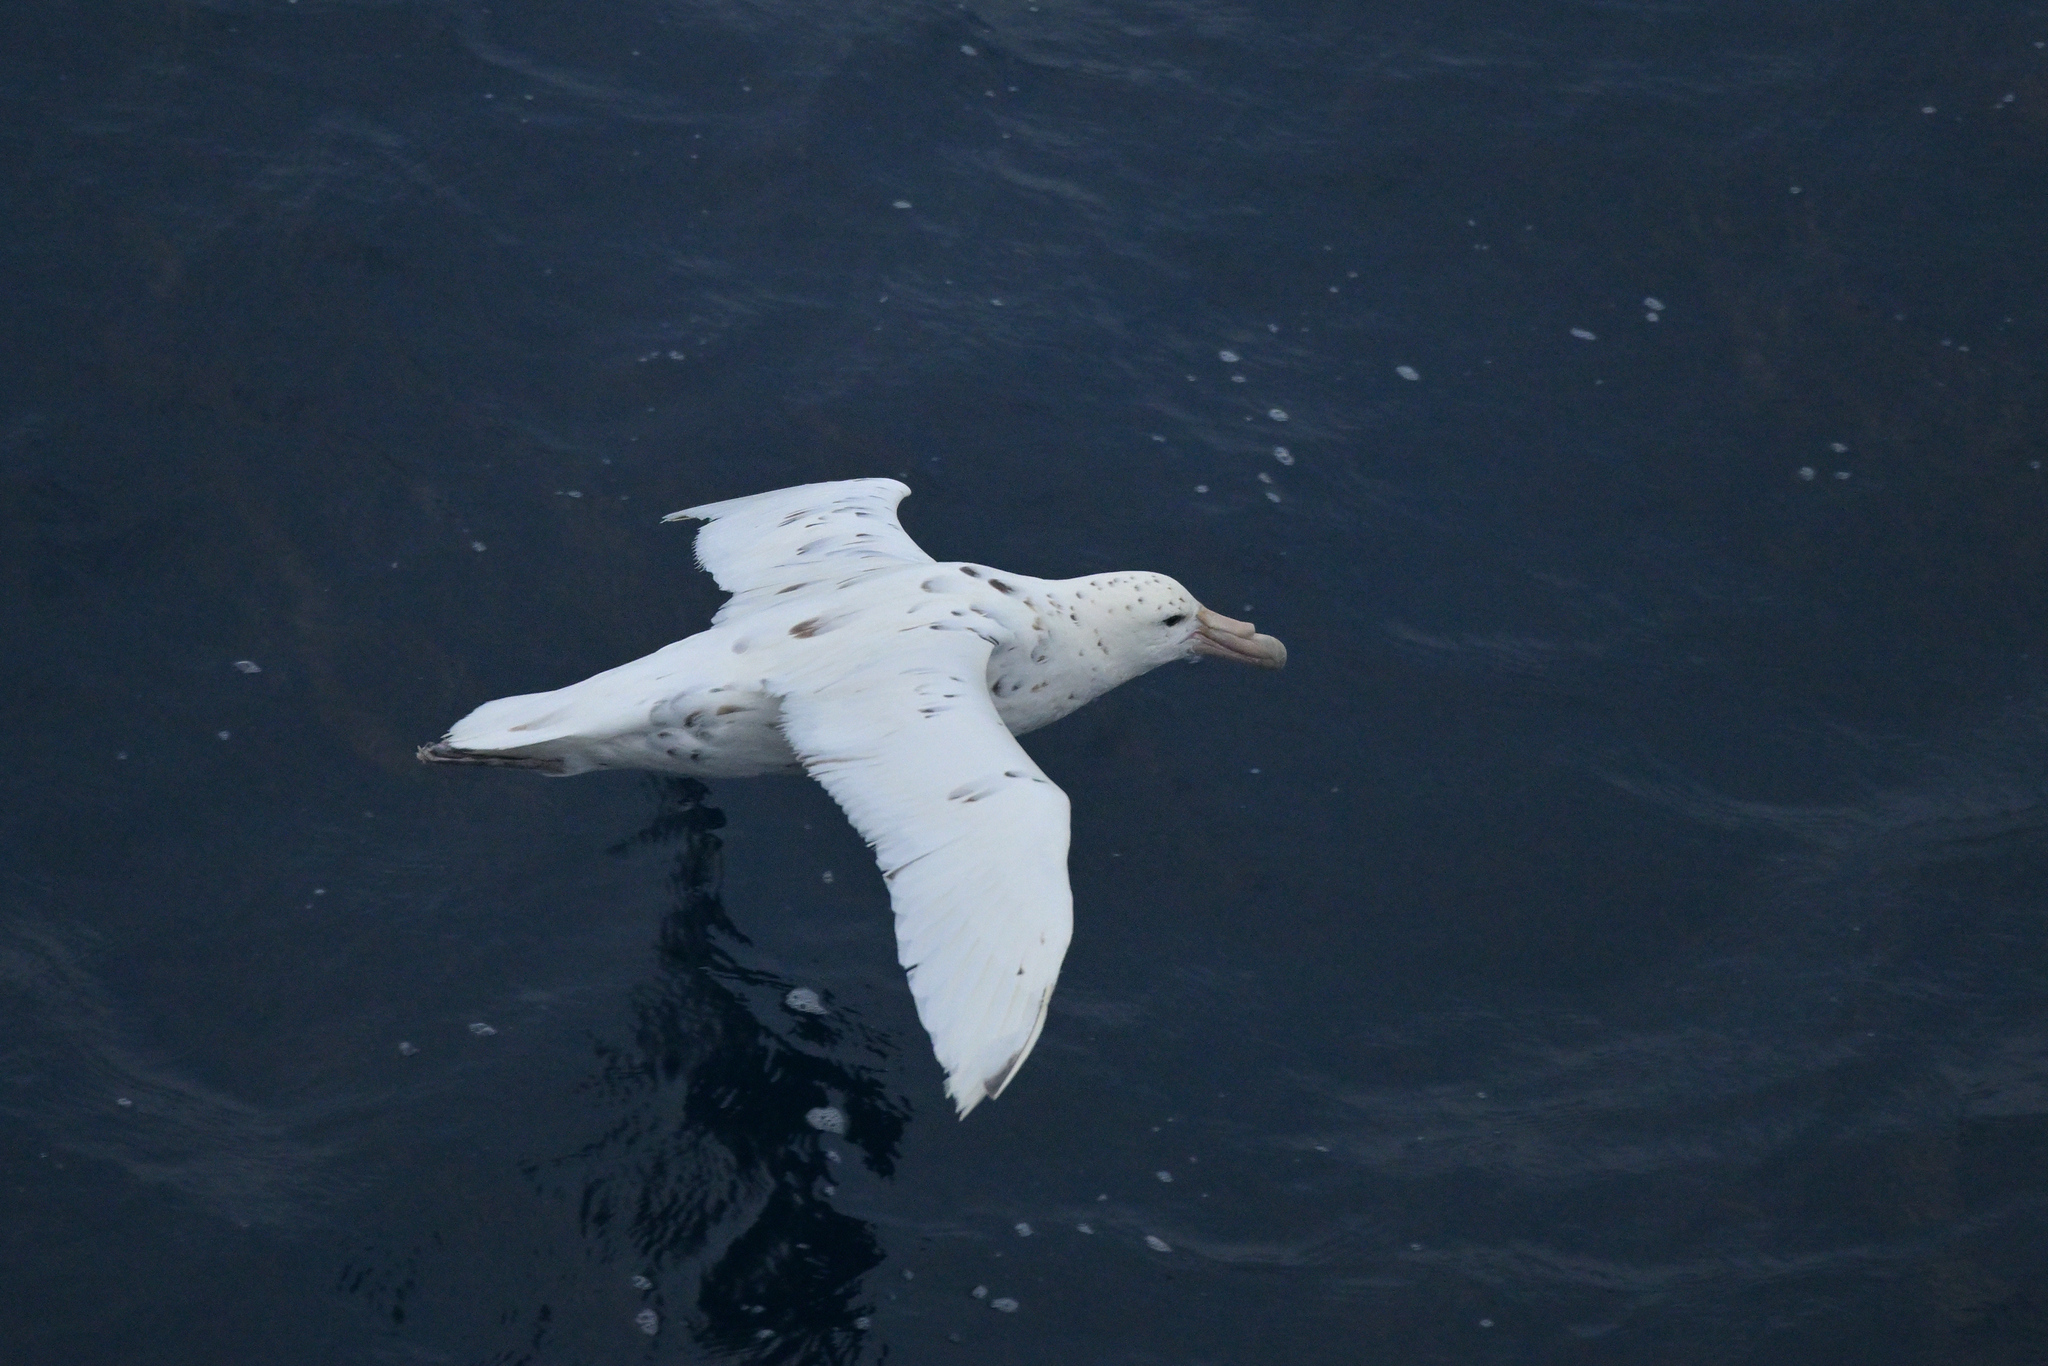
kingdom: Animalia
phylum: Chordata
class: Aves
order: Procellariiformes
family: Procellariidae
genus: Macronectes
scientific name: Macronectes giganteus
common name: Southern giant petrel
